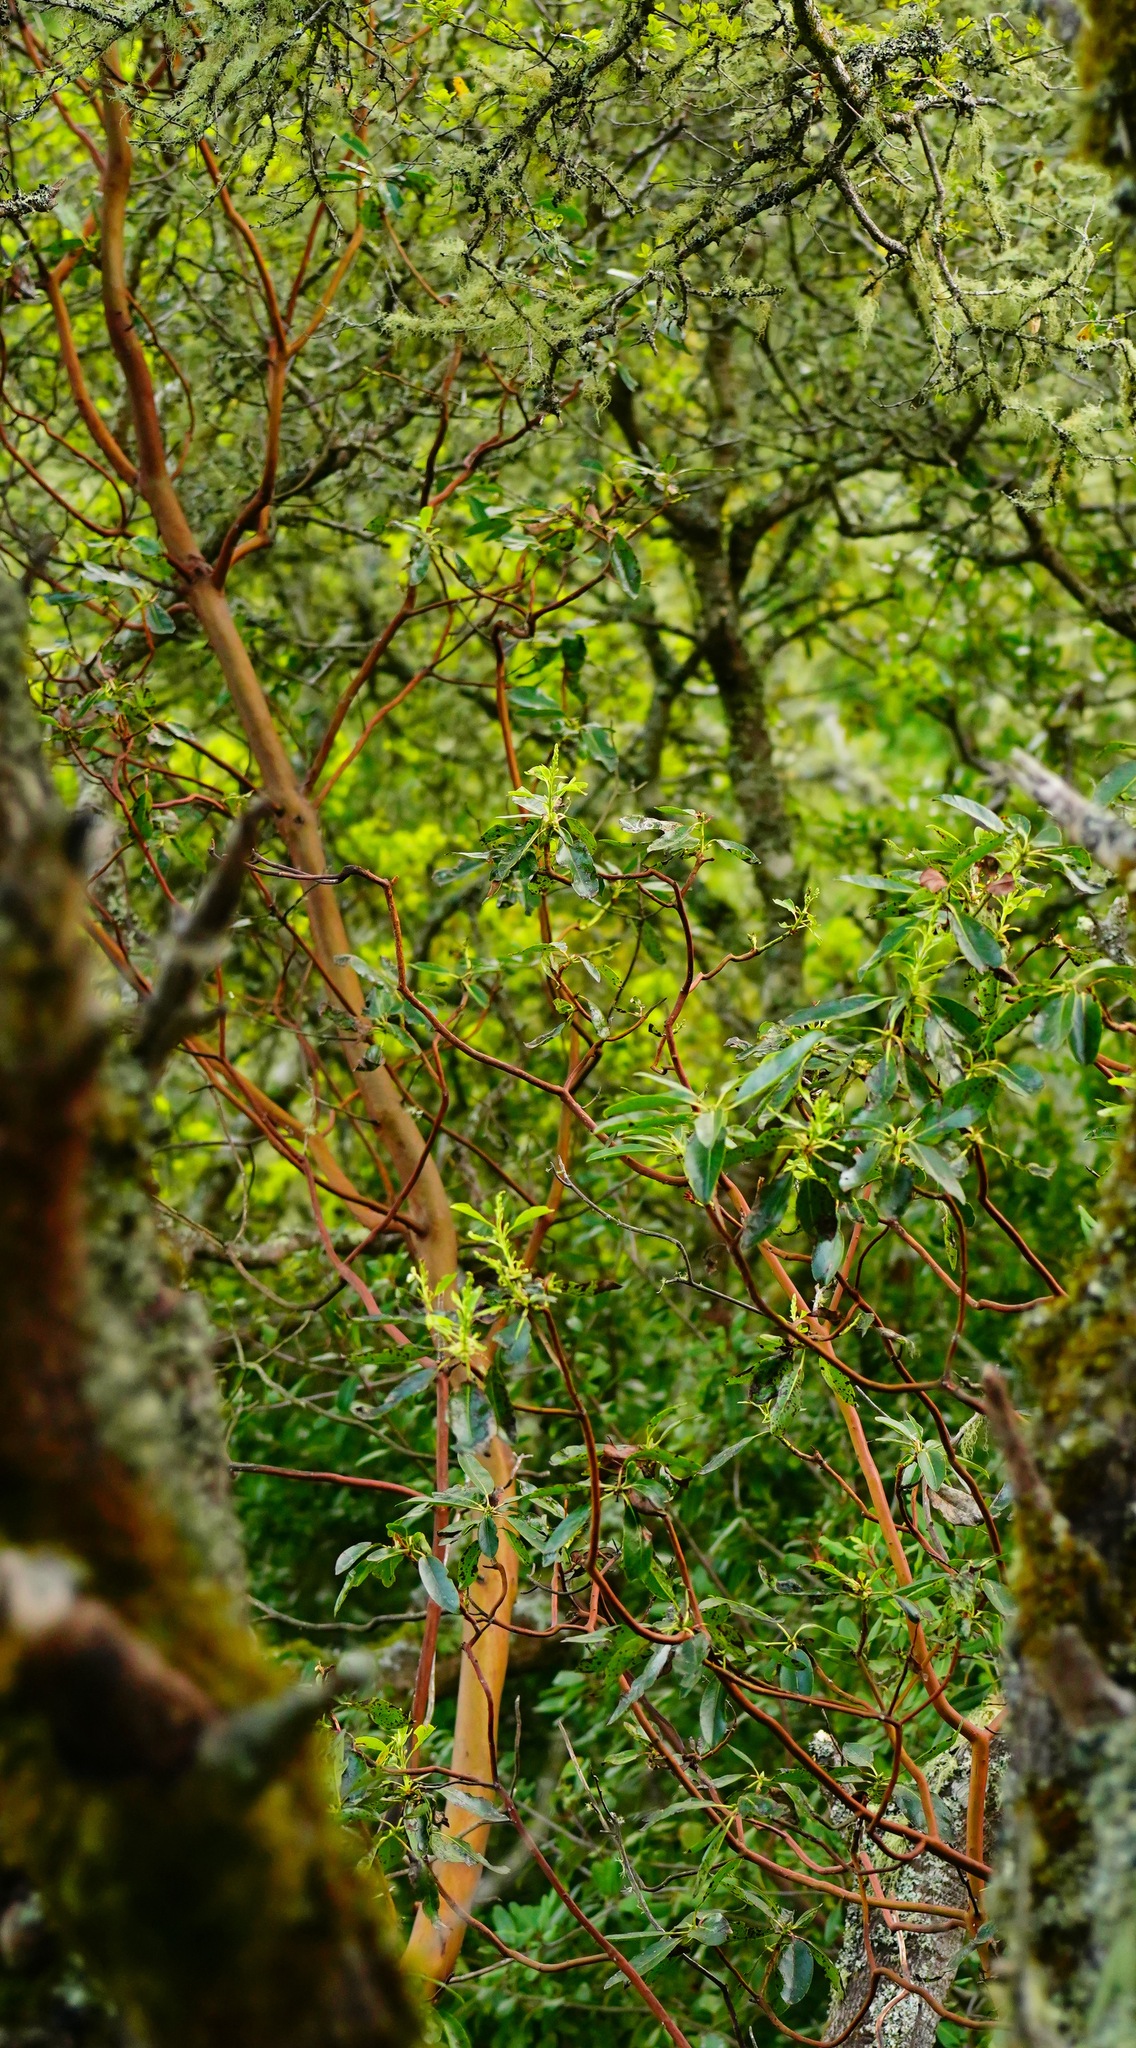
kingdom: Plantae
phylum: Tracheophyta
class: Magnoliopsida
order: Ericales
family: Ericaceae
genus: Arbutus
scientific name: Arbutus menziesii
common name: Pacific madrone
